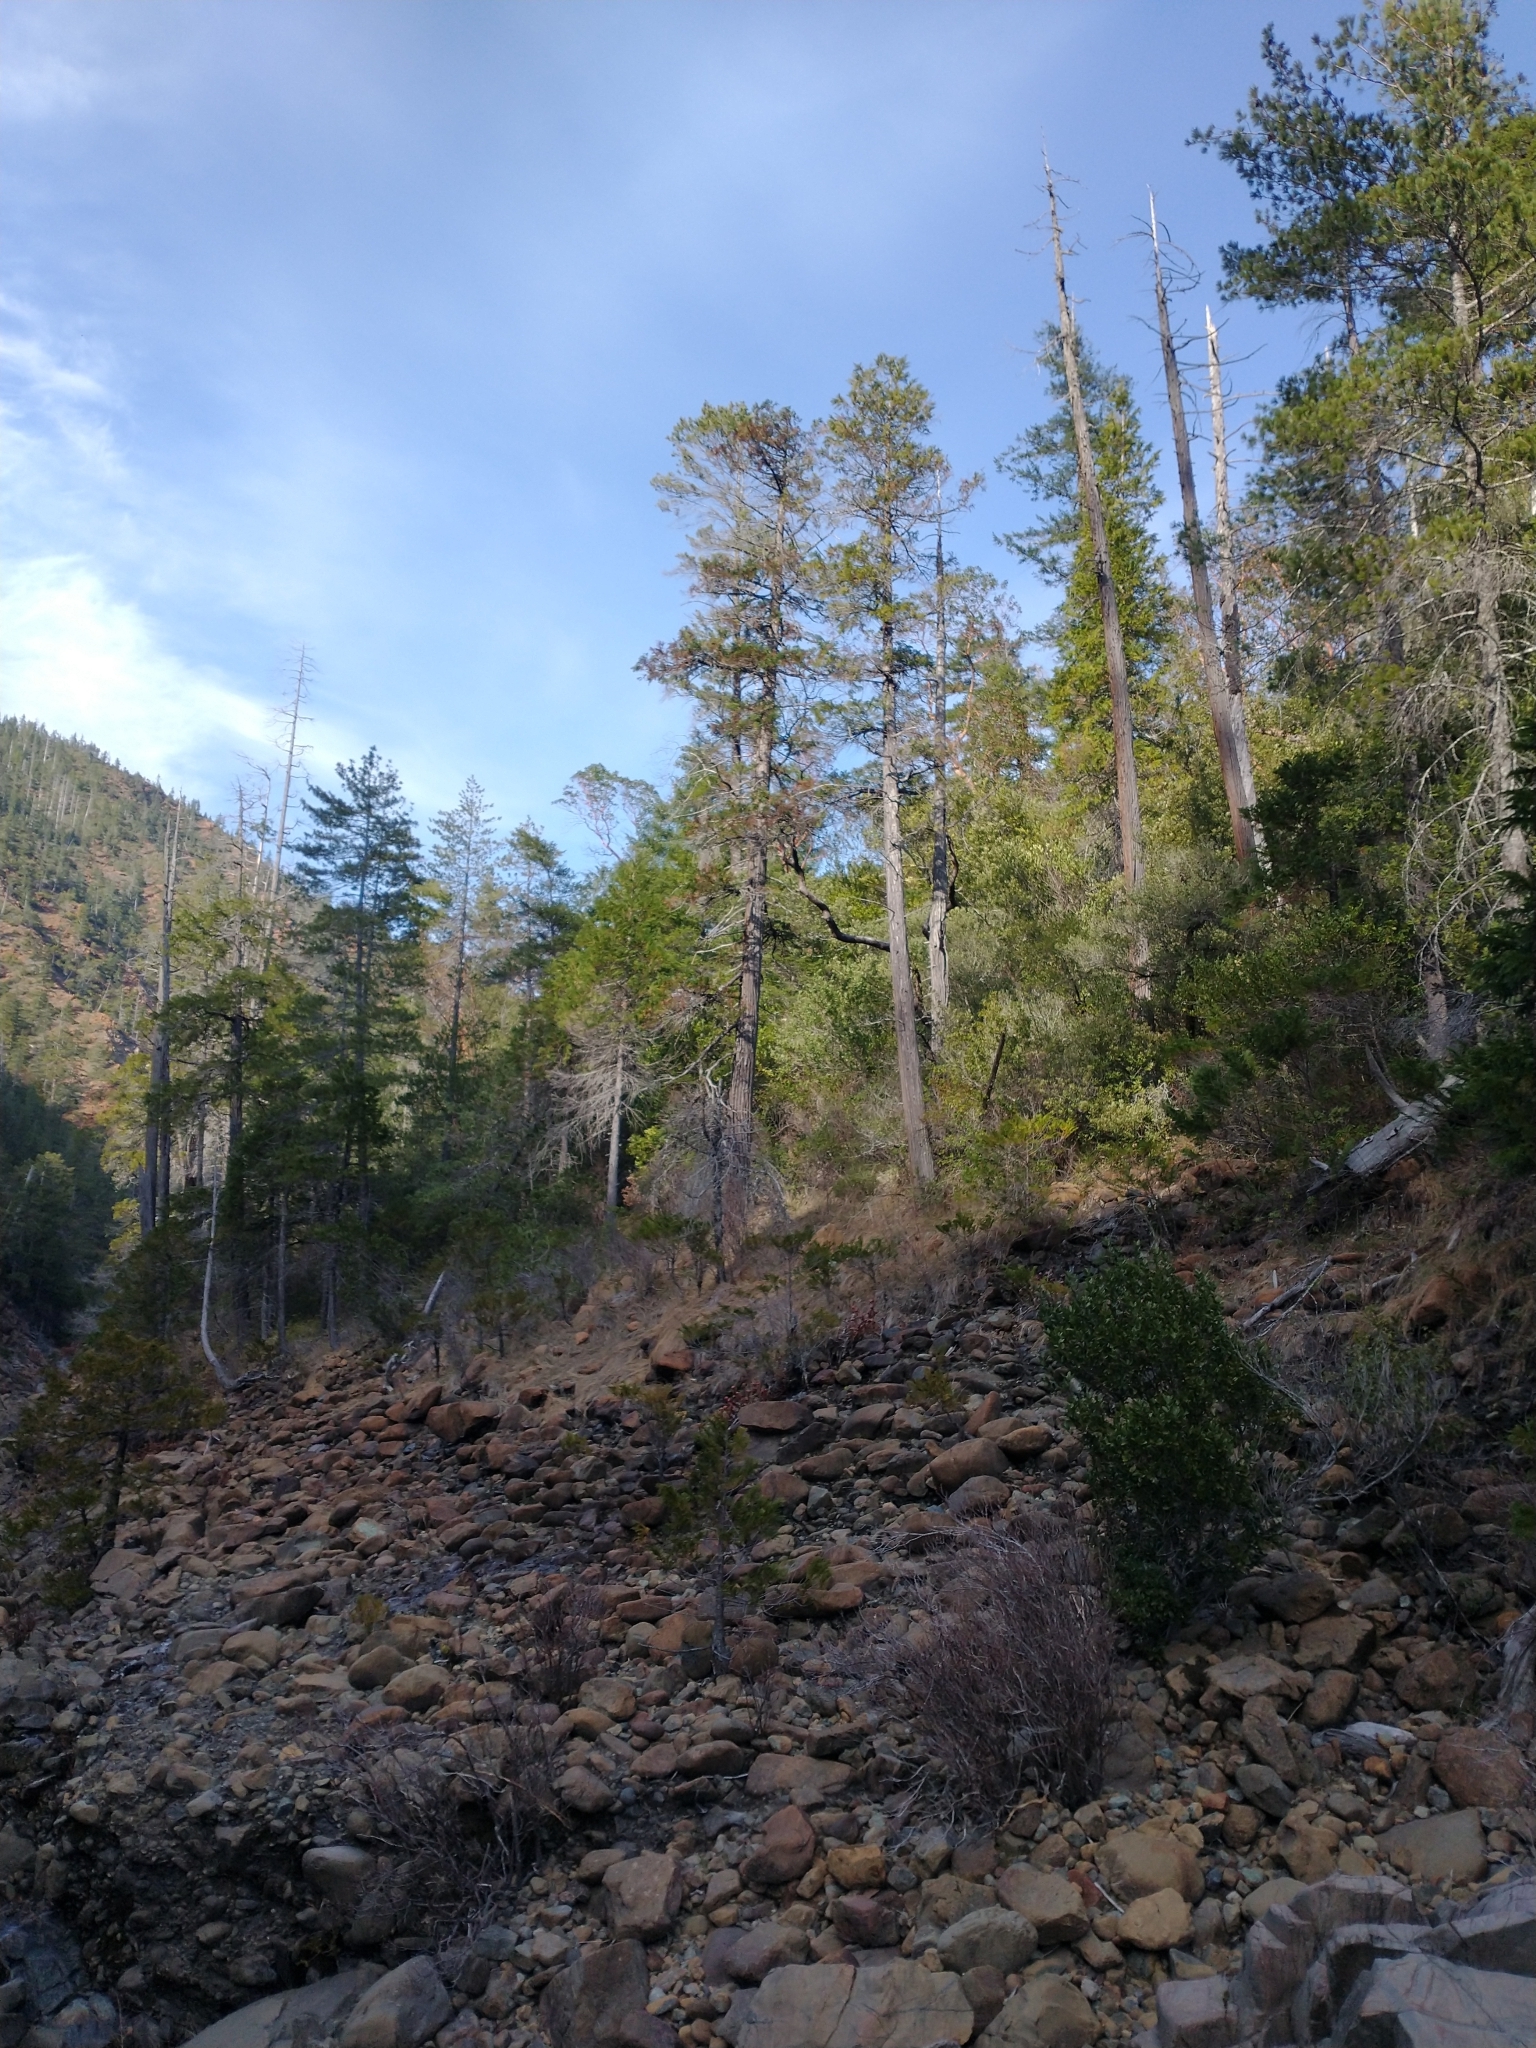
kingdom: Plantae
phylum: Tracheophyta
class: Pinopsida
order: Pinales
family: Cupressaceae
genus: Chamaecyparis
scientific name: Chamaecyparis lawsoniana
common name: Lawson's cypress
